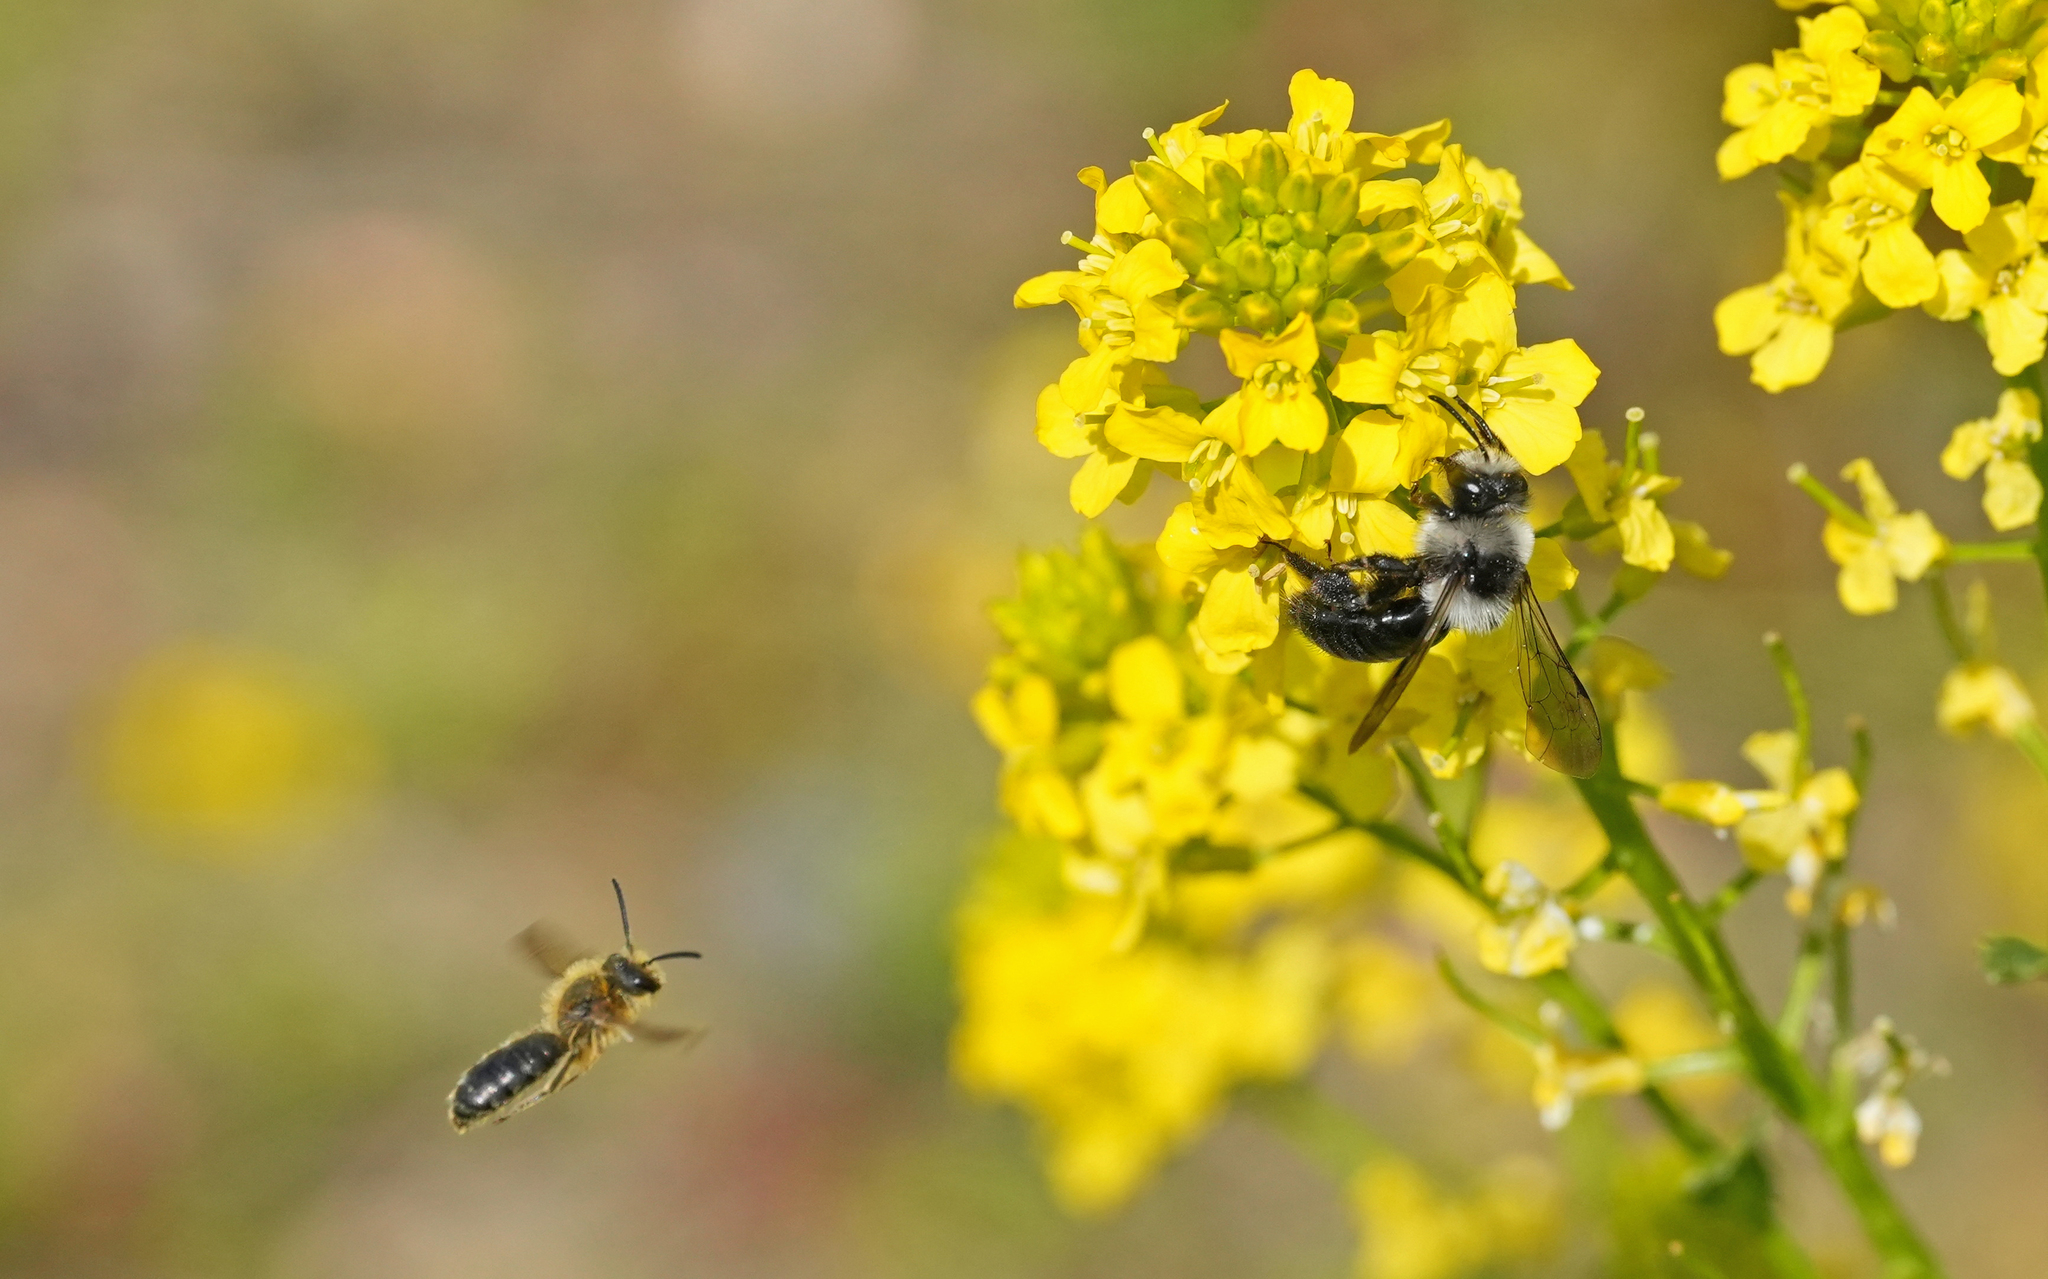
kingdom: Animalia
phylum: Arthropoda
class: Insecta
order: Hymenoptera
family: Andrenidae
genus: Andrena
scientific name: Andrena cineraria
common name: Ashy mining bee
